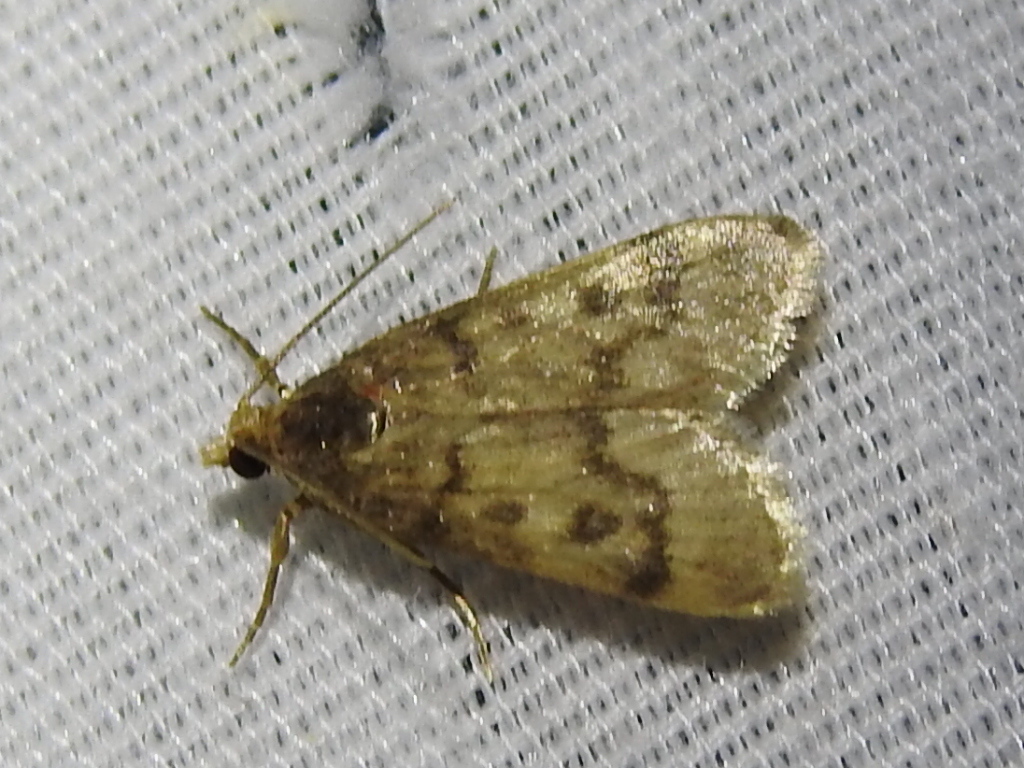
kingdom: Animalia
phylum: Arthropoda
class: Insecta
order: Lepidoptera
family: Crambidae
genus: Loxostegopsis
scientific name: Loxostegopsis polle
